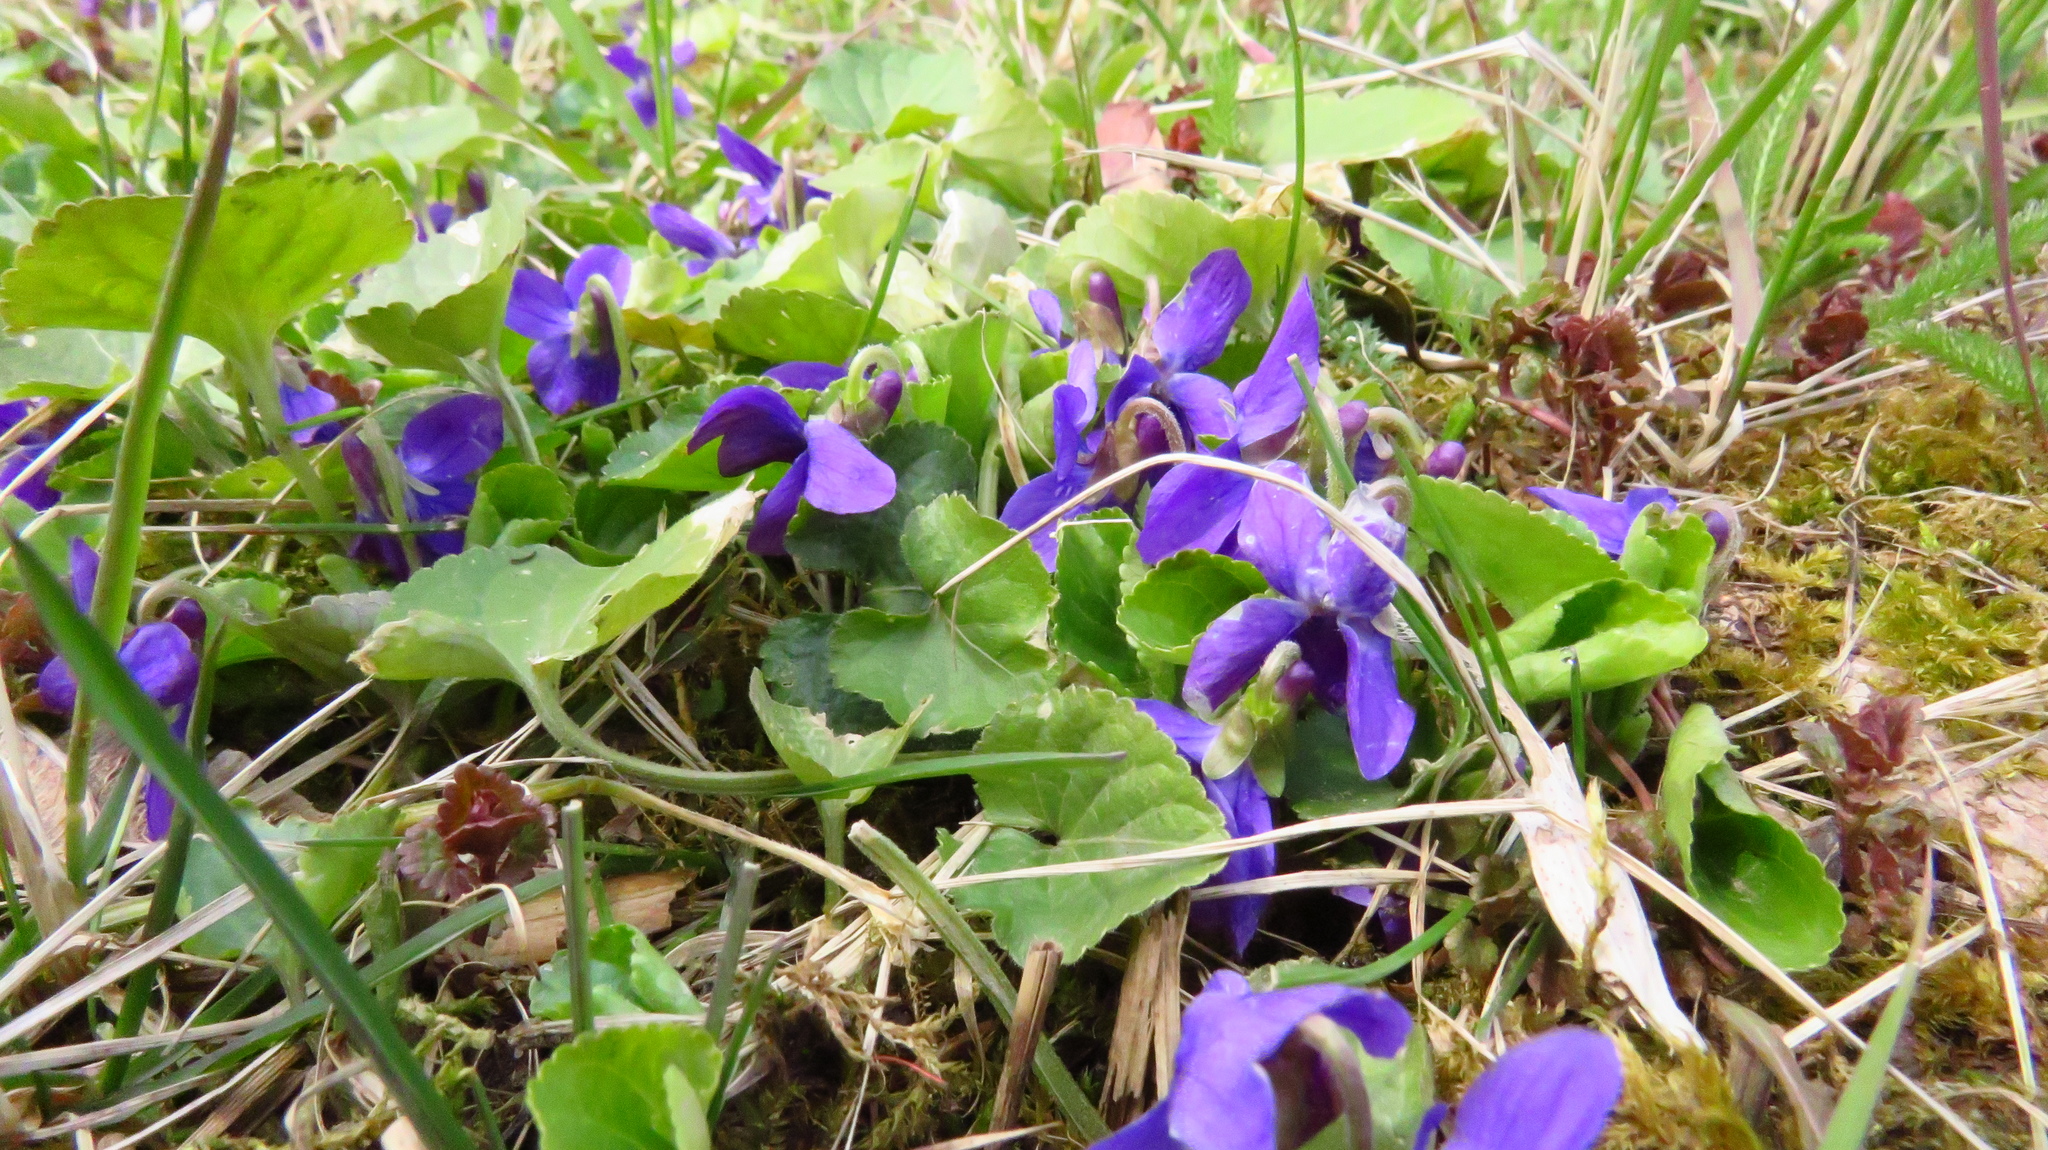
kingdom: Plantae
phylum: Tracheophyta
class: Magnoliopsida
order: Malpighiales
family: Violaceae
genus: Viola
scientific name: Viola odorata
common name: Sweet violet
